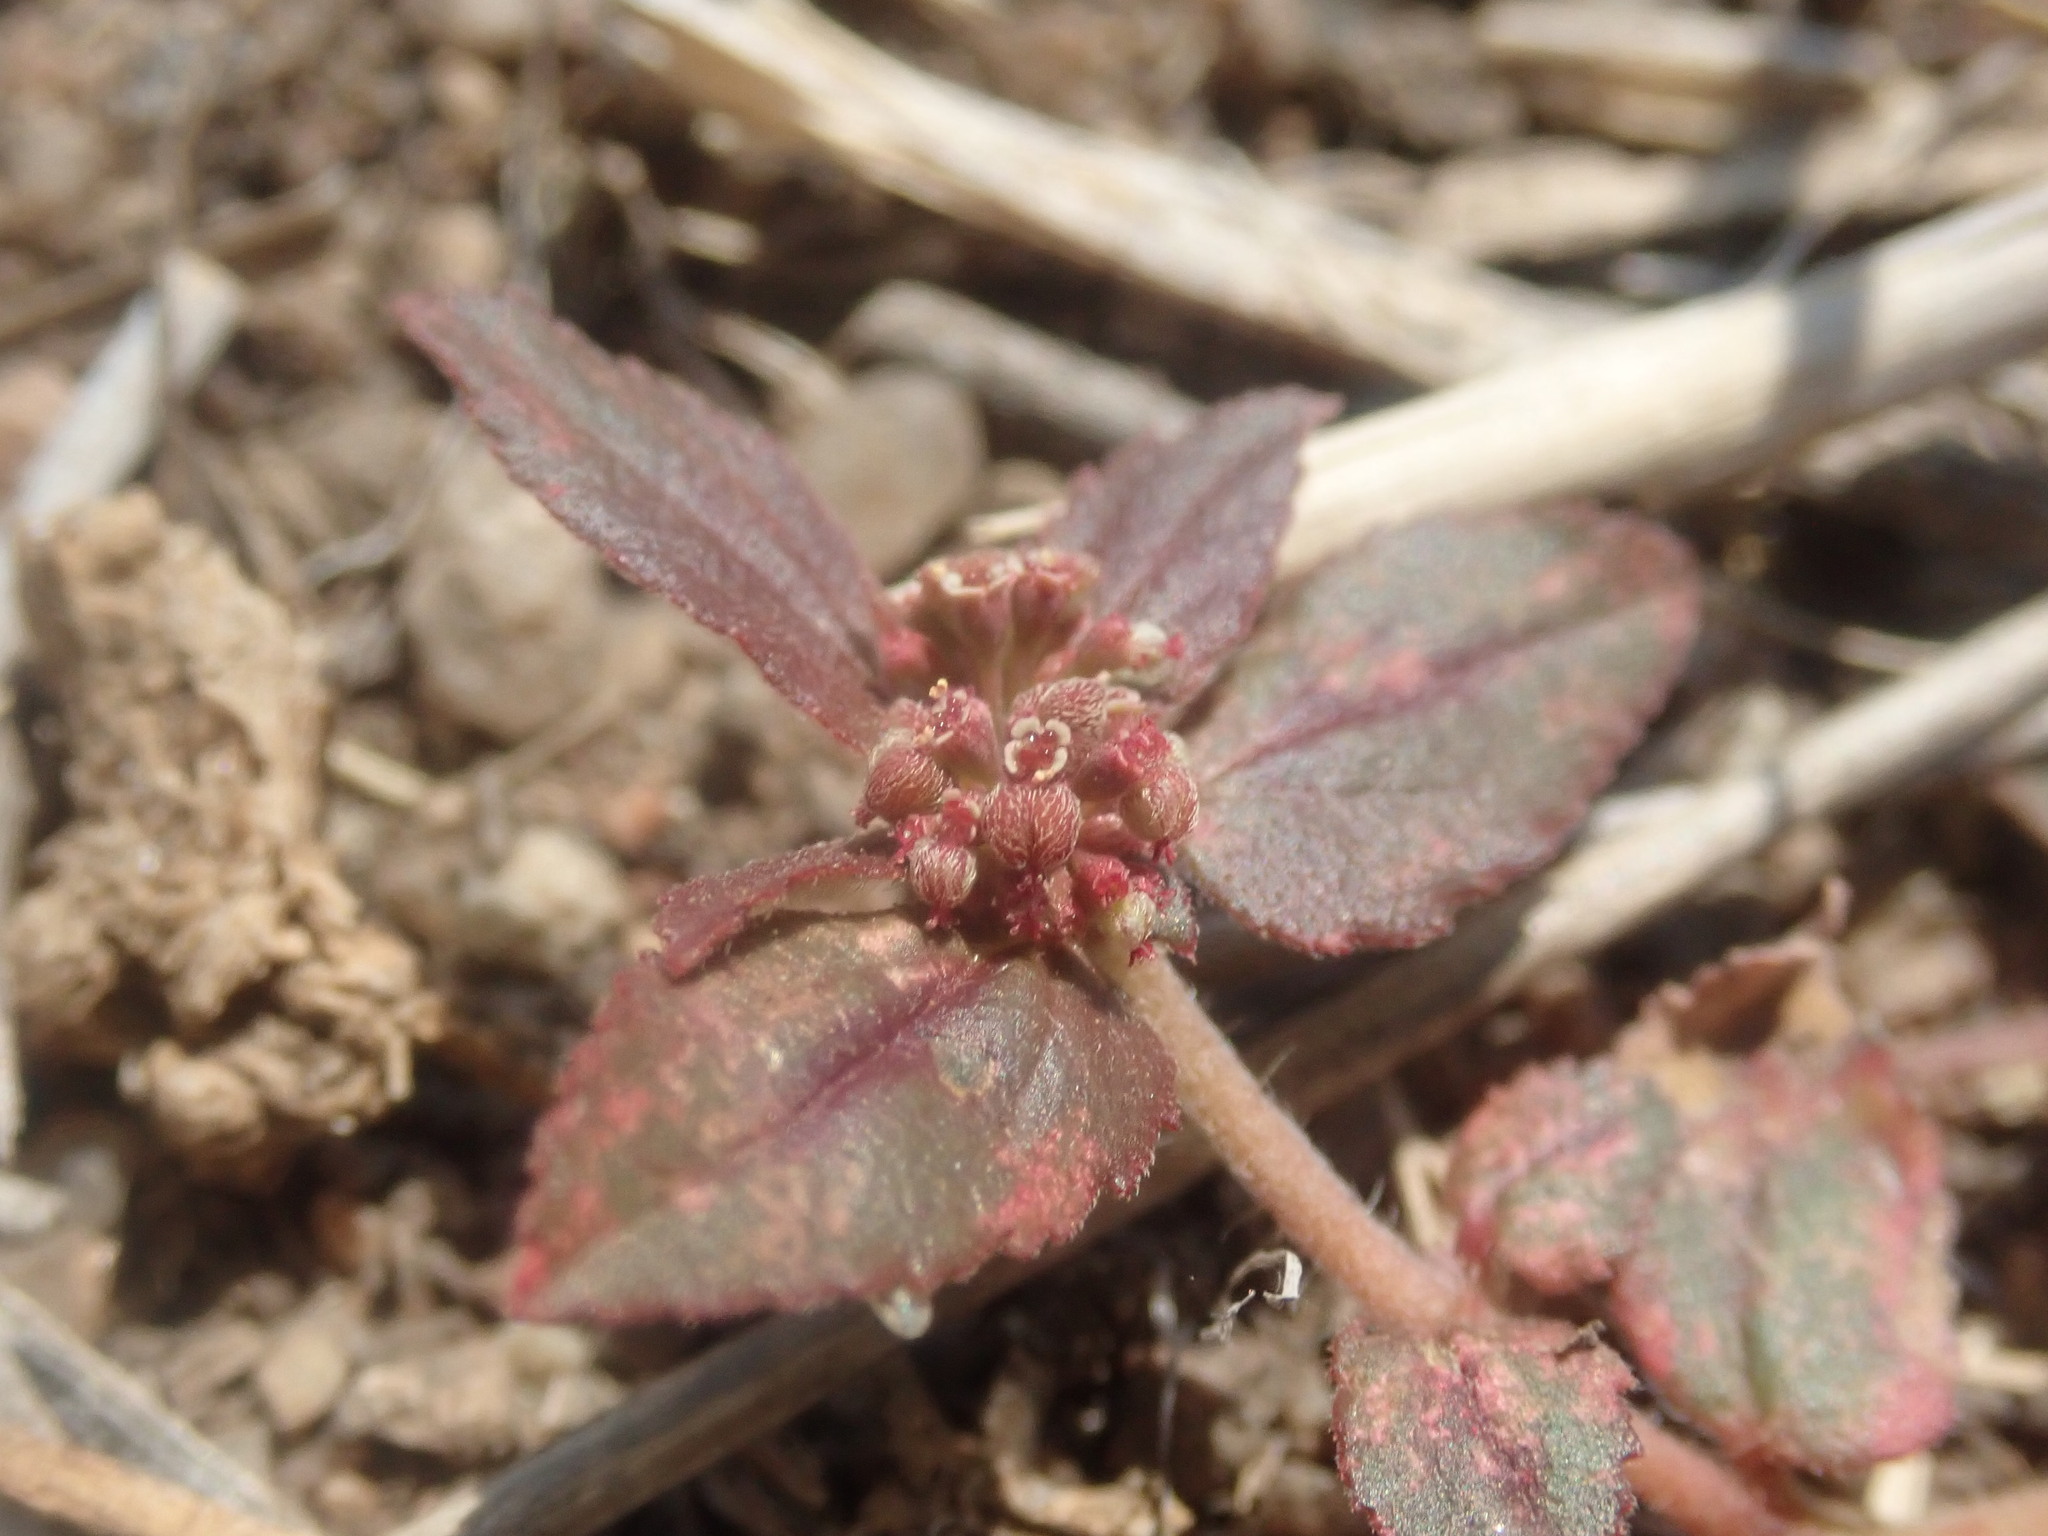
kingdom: Plantae
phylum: Tracheophyta
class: Magnoliopsida
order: Malpighiales
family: Euphorbiaceae
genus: Euphorbia
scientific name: Euphorbia hirta
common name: Pillpod sandmat
